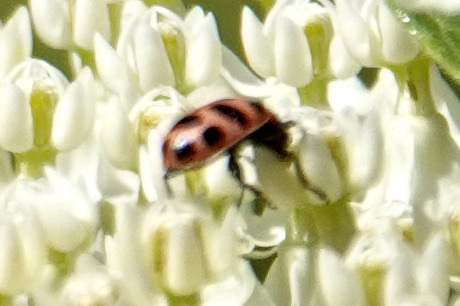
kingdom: Animalia
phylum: Arthropoda
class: Insecta
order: Coleoptera
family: Coccinellidae
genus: Coleomegilla
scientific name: Coleomegilla maculata
